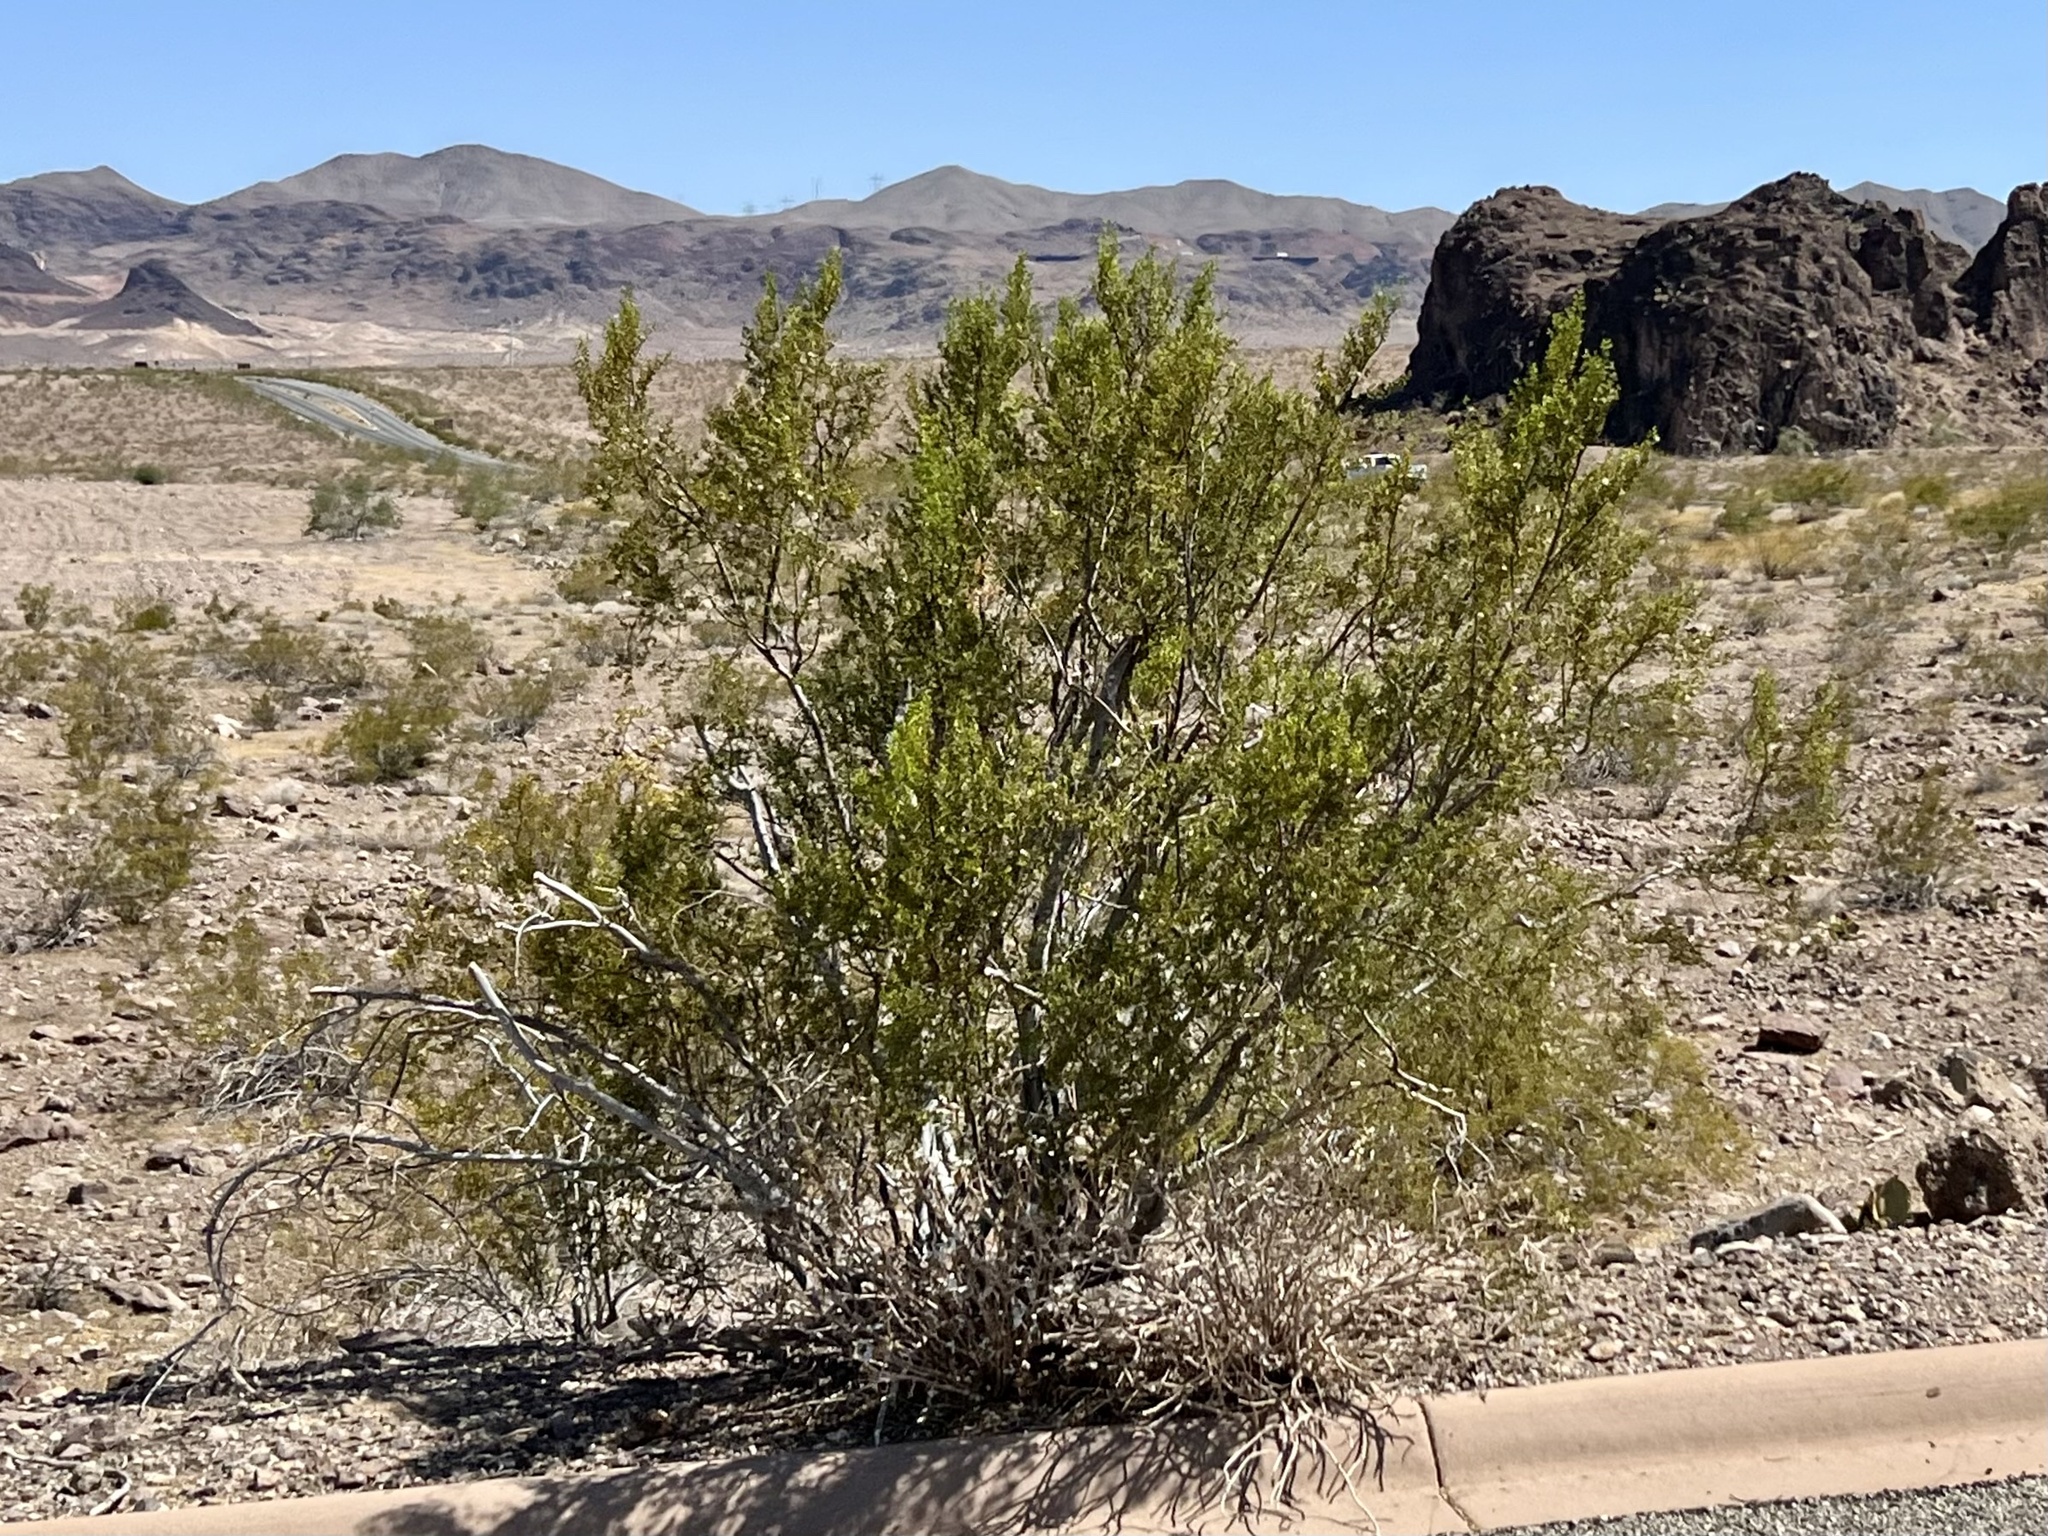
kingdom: Plantae
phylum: Tracheophyta
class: Magnoliopsida
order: Zygophyllales
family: Zygophyllaceae
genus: Larrea
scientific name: Larrea tridentata
